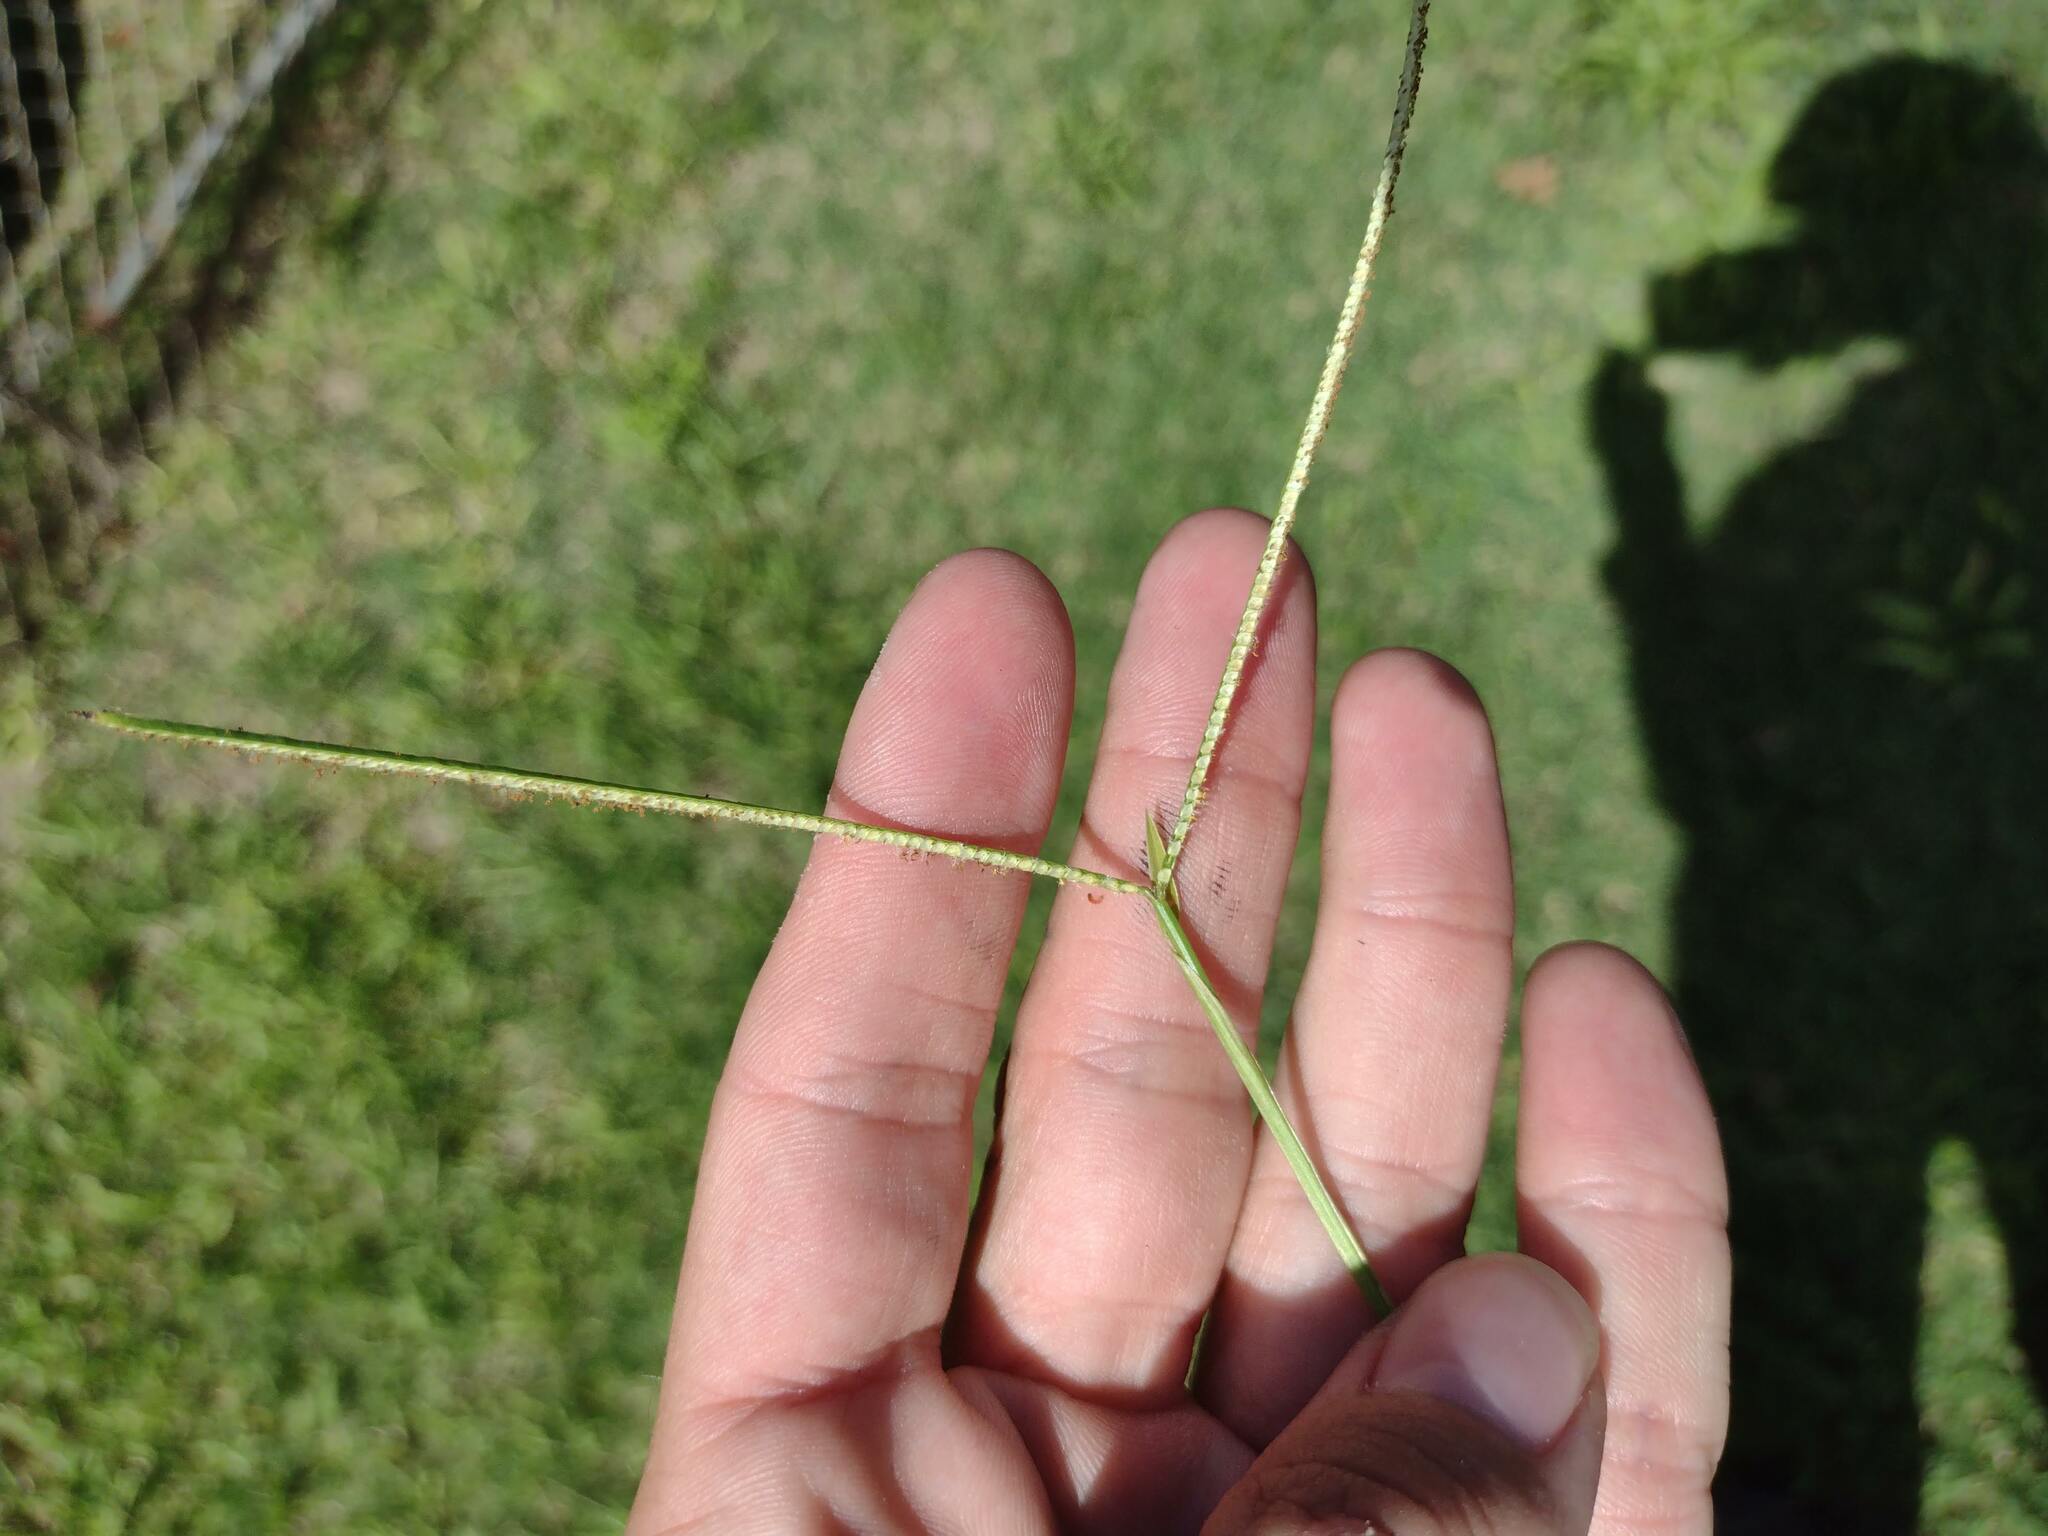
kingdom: Plantae
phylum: Tracheophyta
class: Liliopsida
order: Poales
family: Poaceae
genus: Paspalum
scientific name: Paspalum conjugatum
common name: Hilograss
